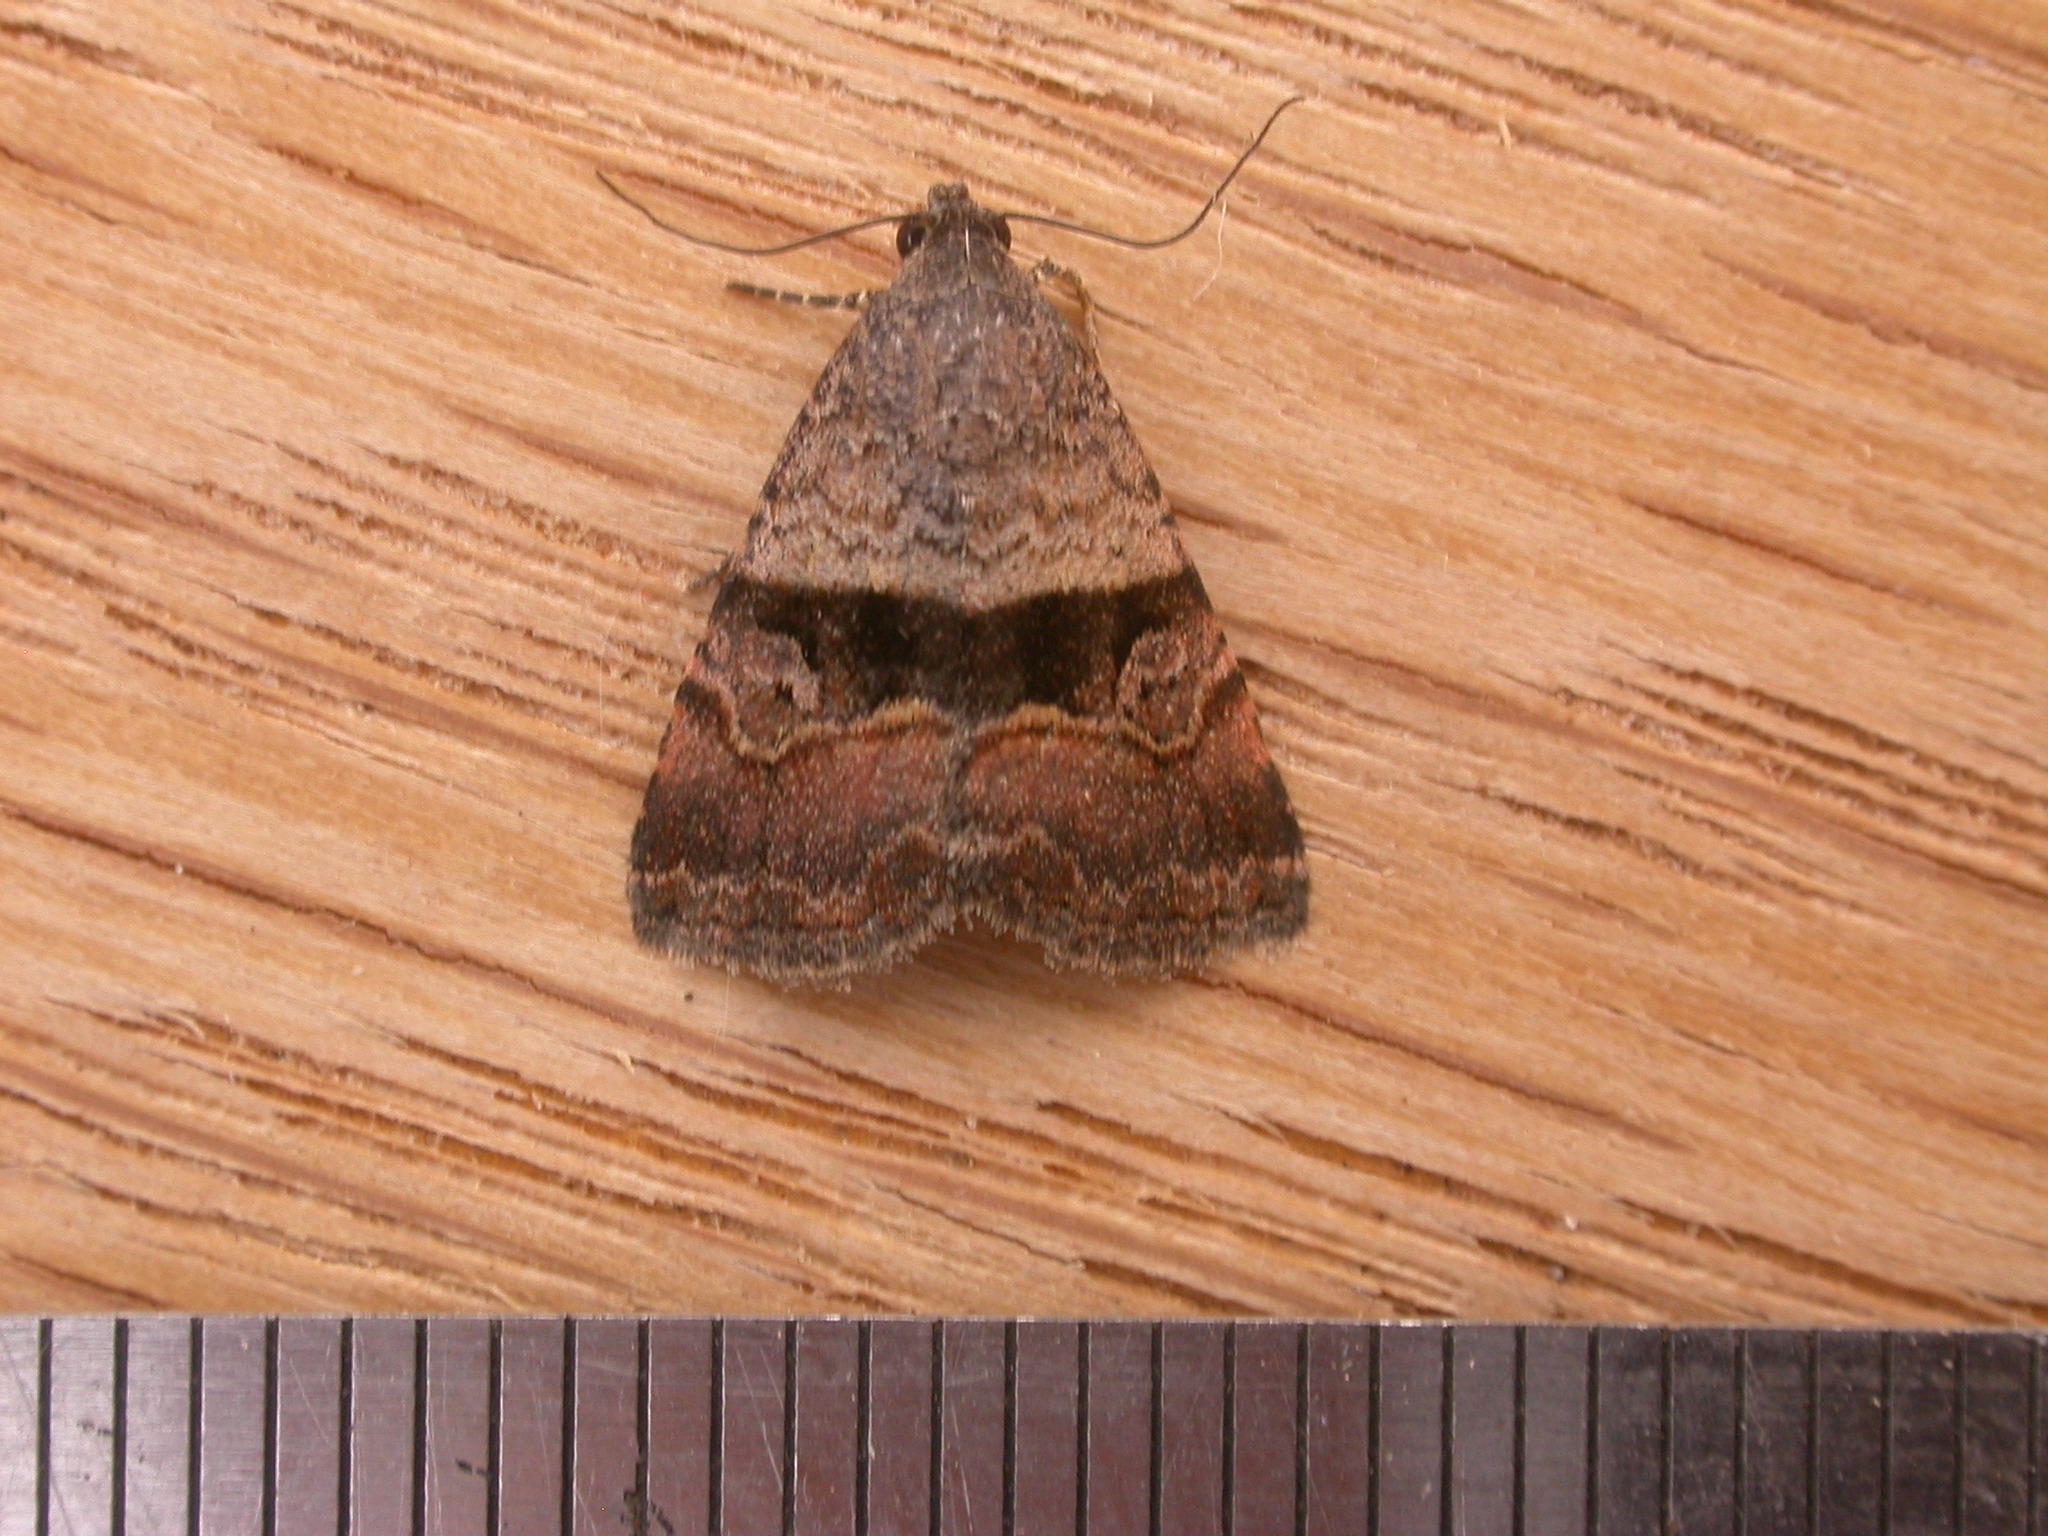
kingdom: Animalia
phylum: Arthropoda
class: Insecta
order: Lepidoptera
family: Noctuidae
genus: Ozarba
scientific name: Ozarba chrysaspis
